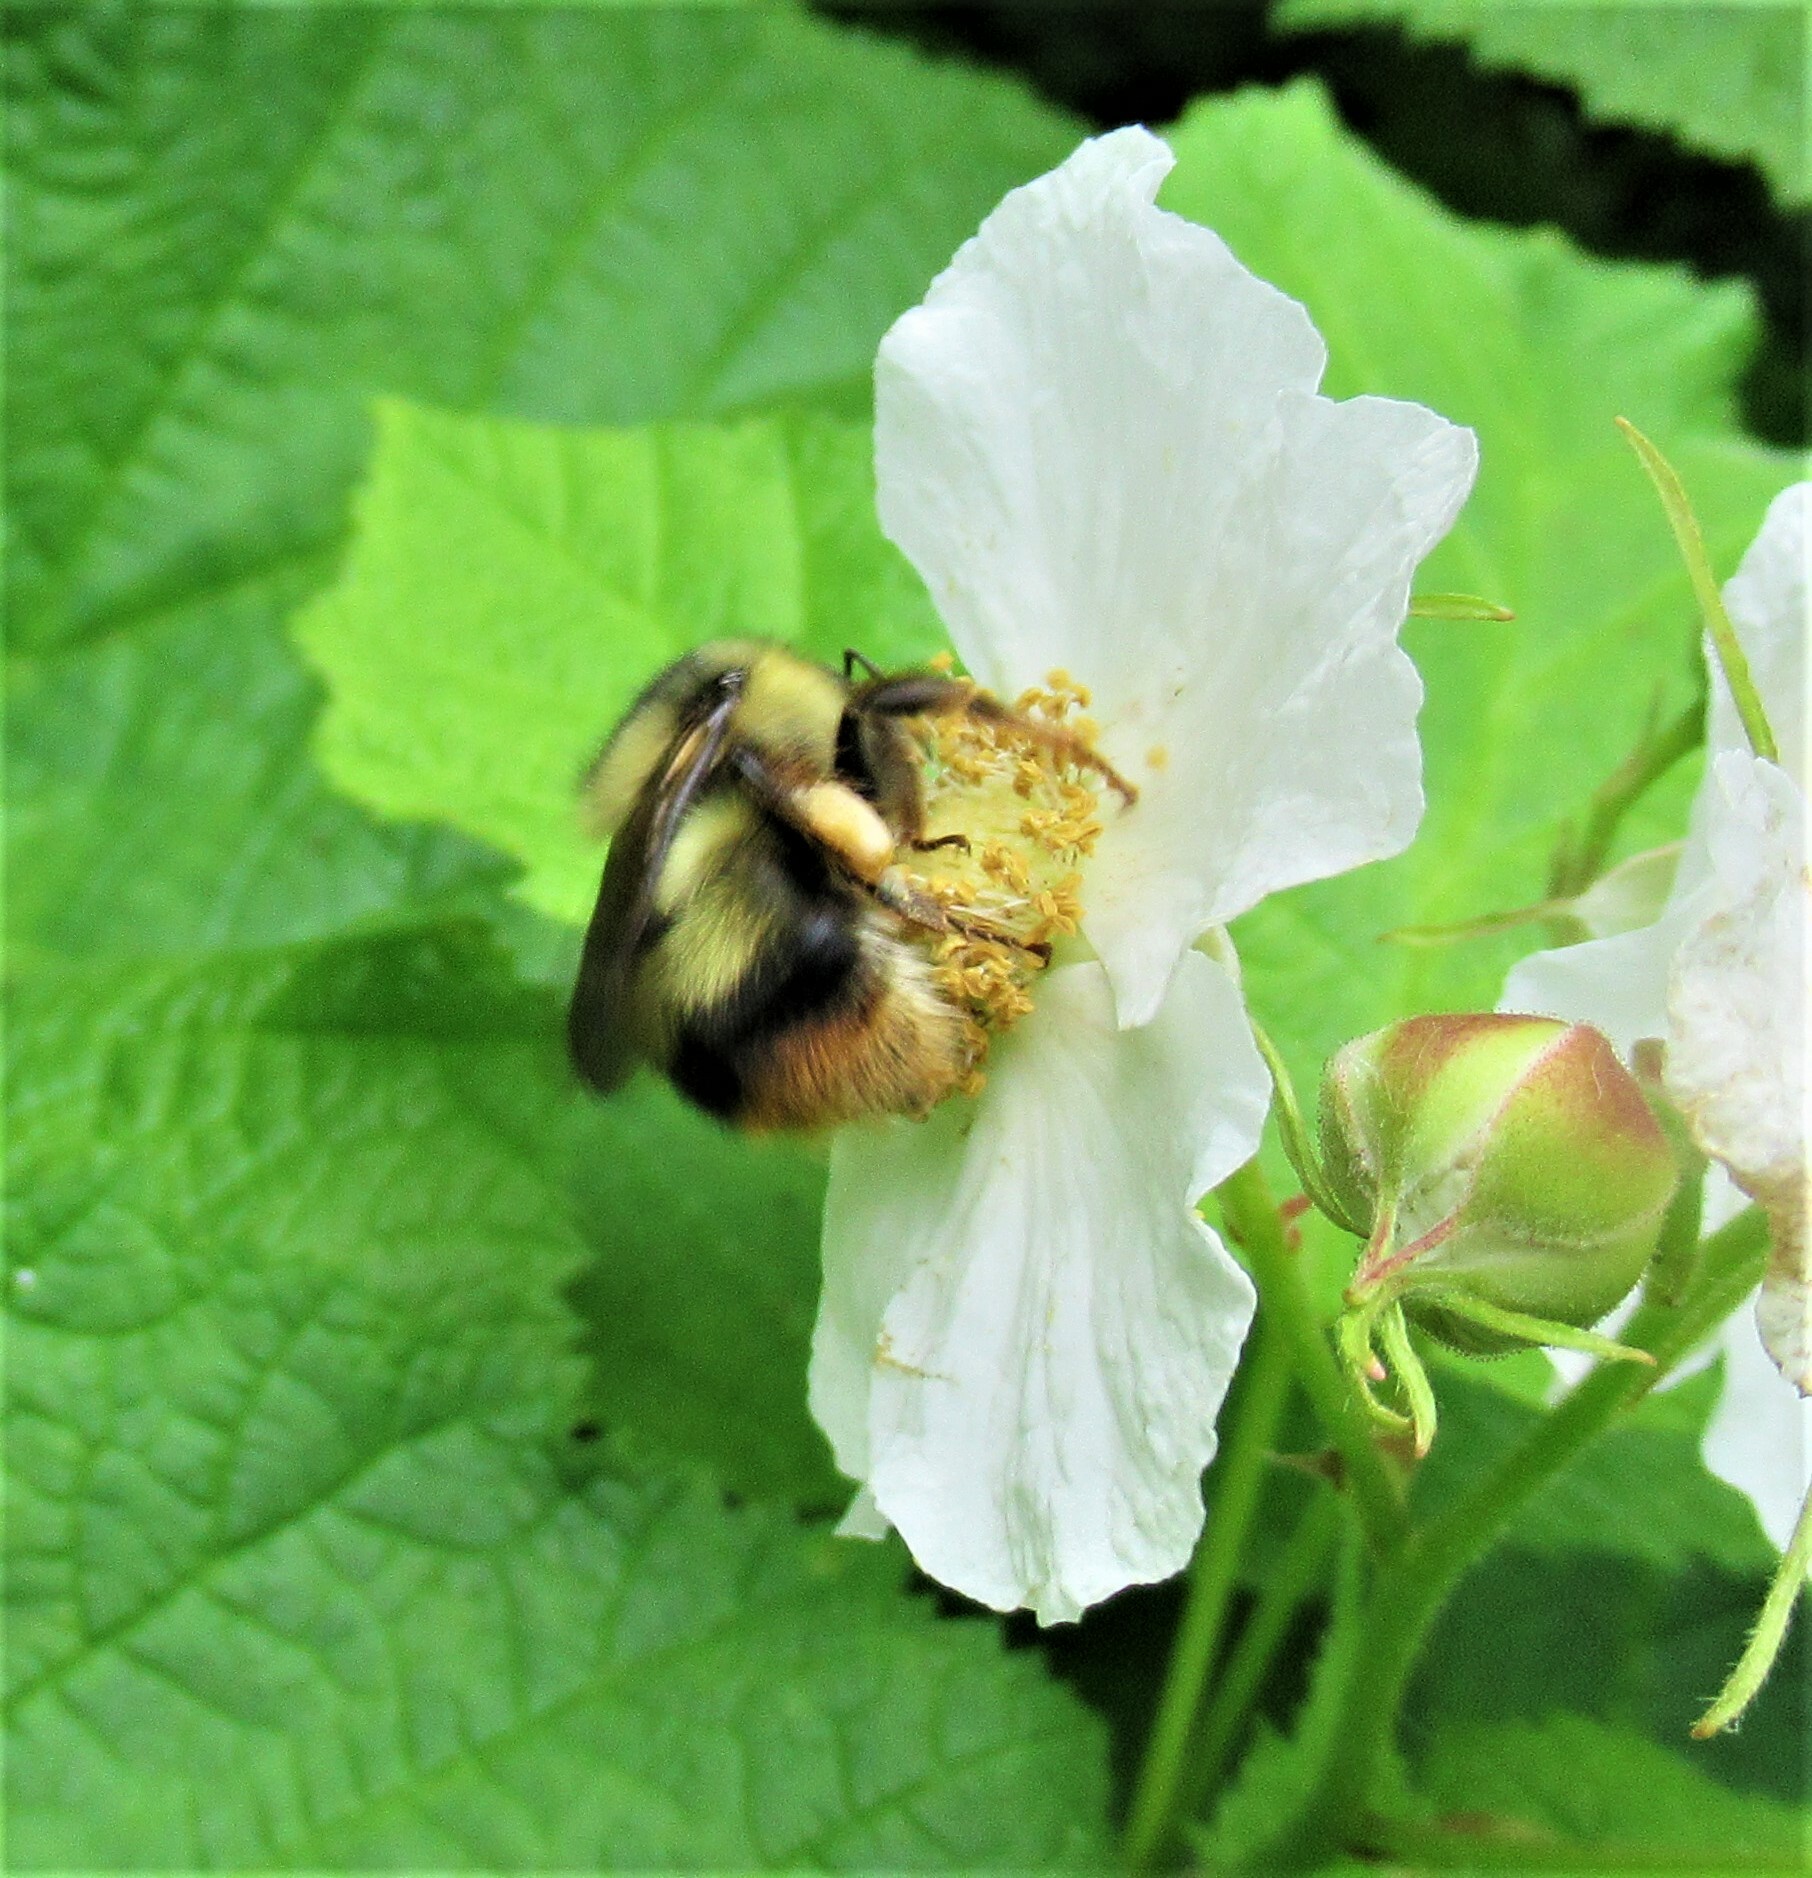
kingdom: Animalia
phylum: Arthropoda
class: Insecta
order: Hymenoptera
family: Apidae
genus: Bombus
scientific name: Bombus mixtus
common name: Fuzzy-horned bumble bee
